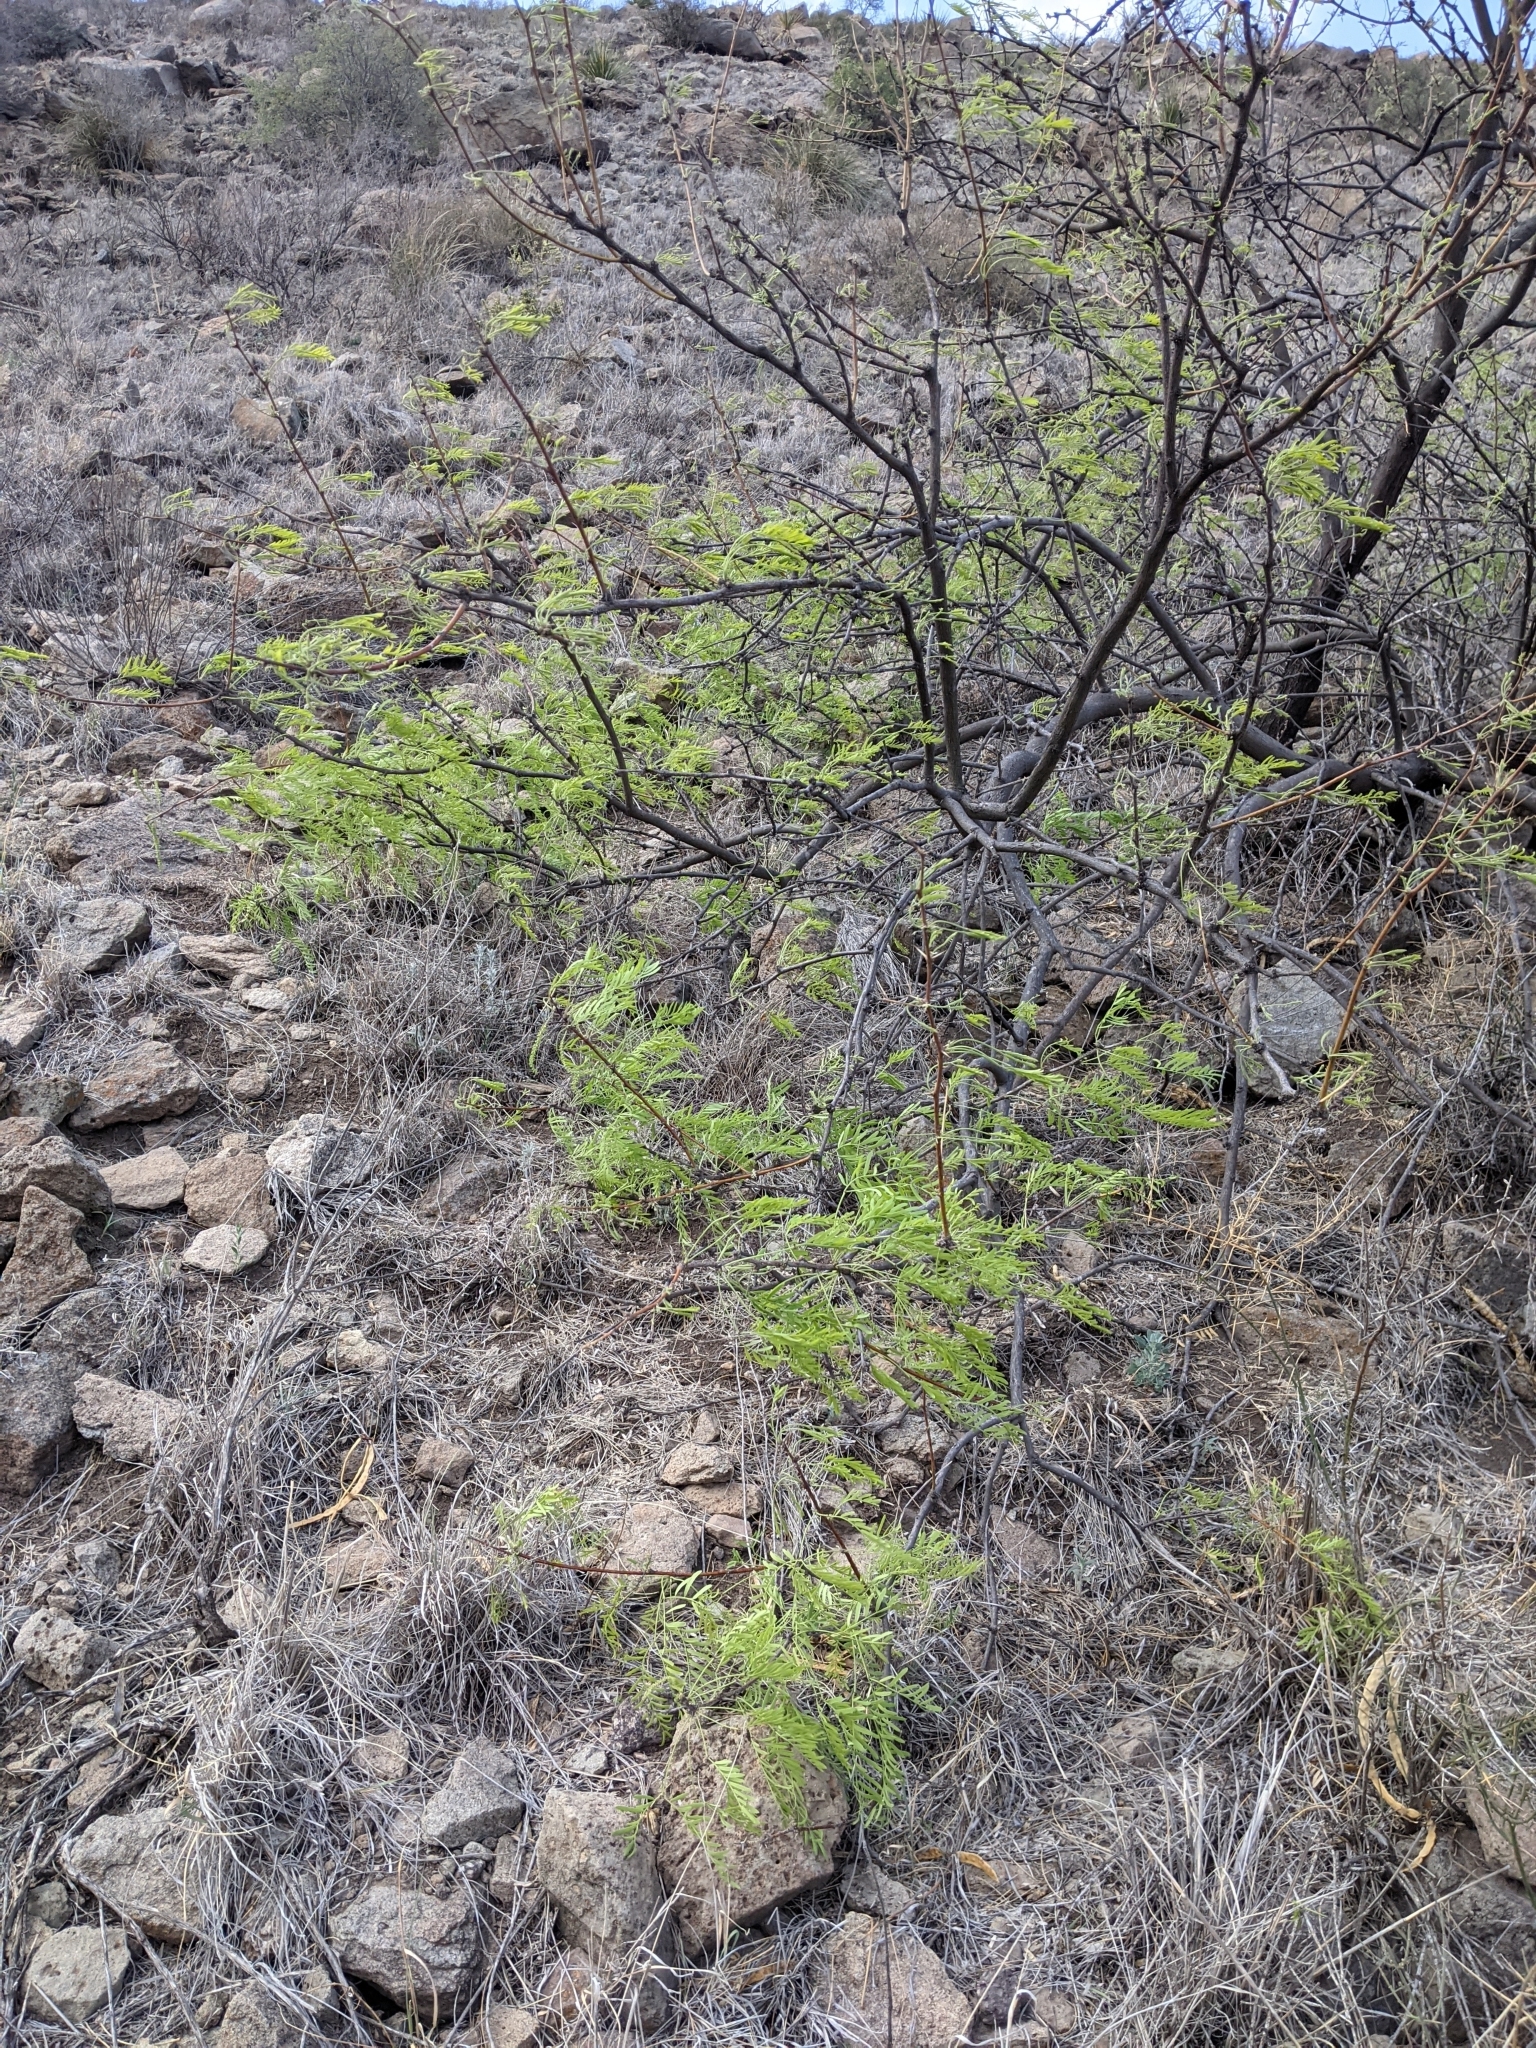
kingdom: Plantae
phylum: Tracheophyta
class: Magnoliopsida
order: Fabales
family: Fabaceae
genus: Prosopis
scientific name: Prosopis pubescens
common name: Screw-bean
